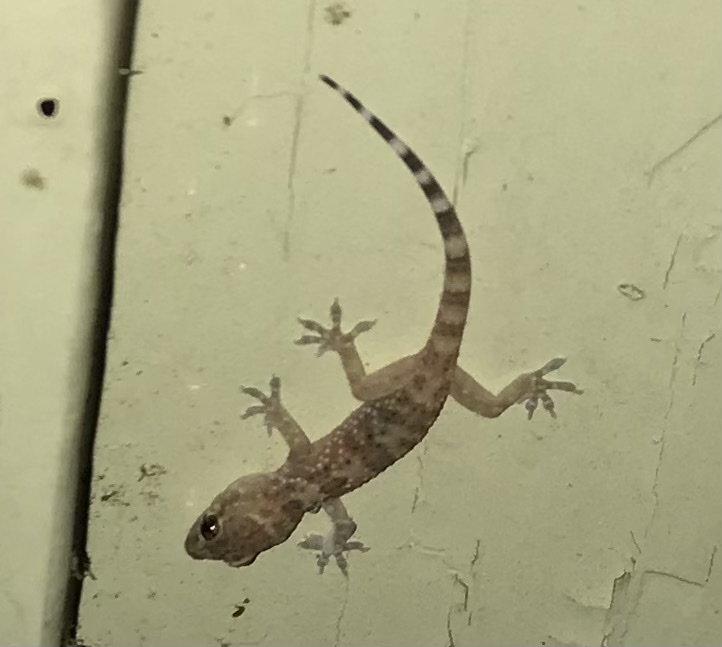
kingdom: Animalia
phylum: Chordata
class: Squamata
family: Gekkonidae
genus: Hemidactylus
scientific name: Hemidactylus turcicus
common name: Turkish gecko
